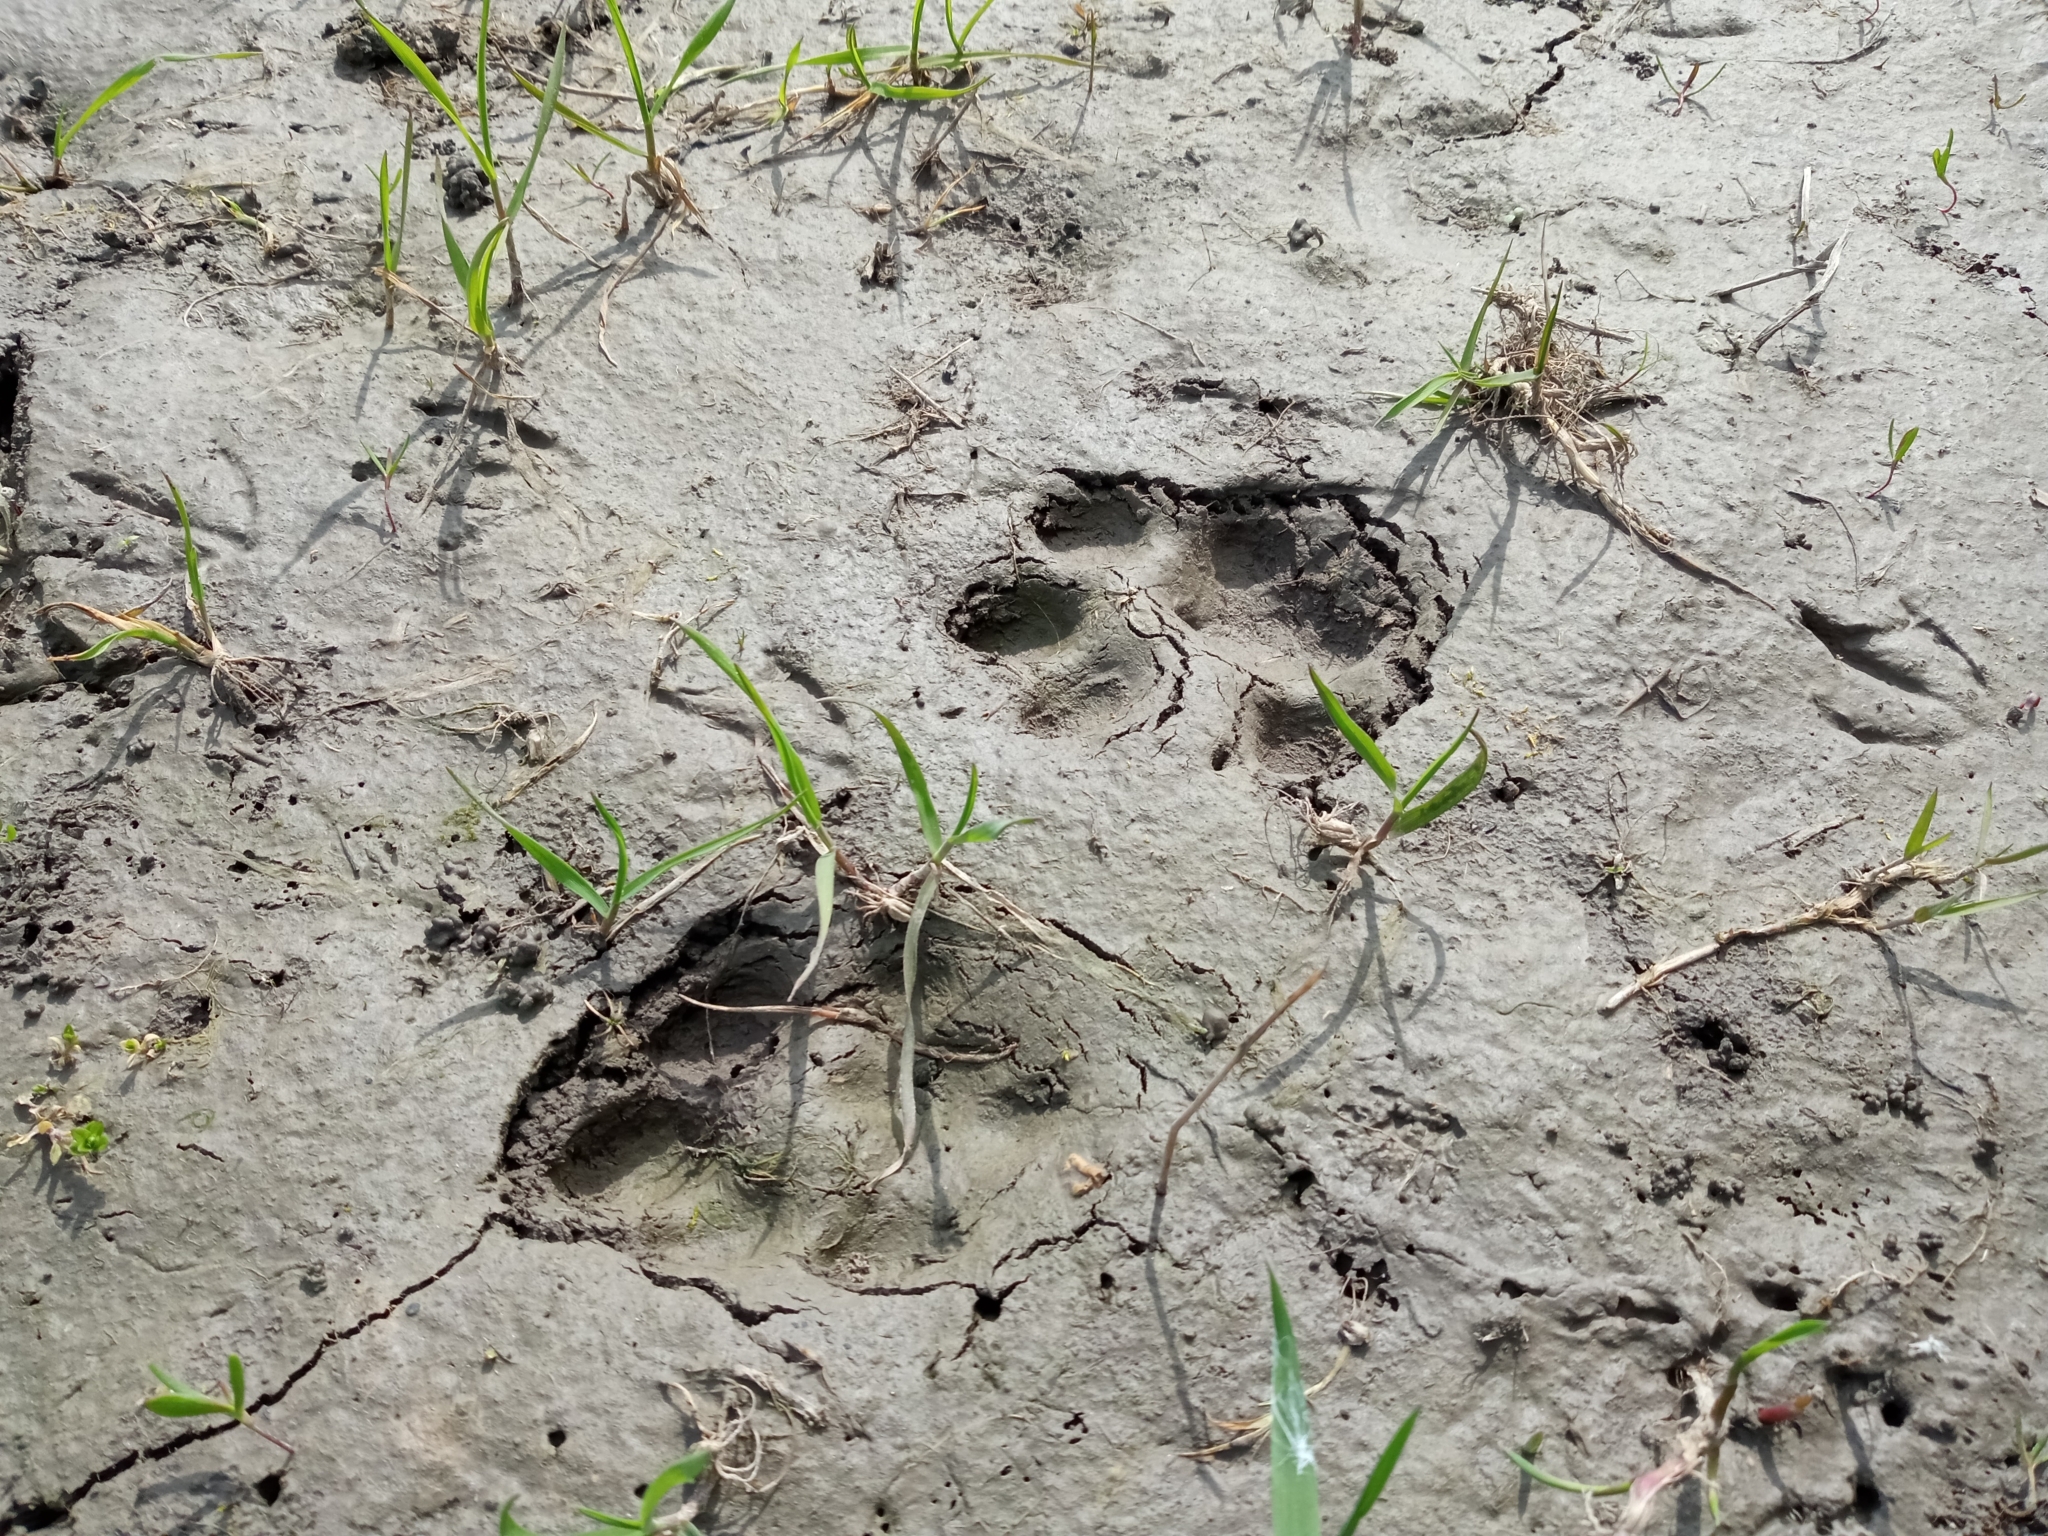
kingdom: Animalia
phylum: Chordata
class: Mammalia
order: Carnivora
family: Felidae
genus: Lynx
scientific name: Lynx lynx
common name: Eurasian lynx
